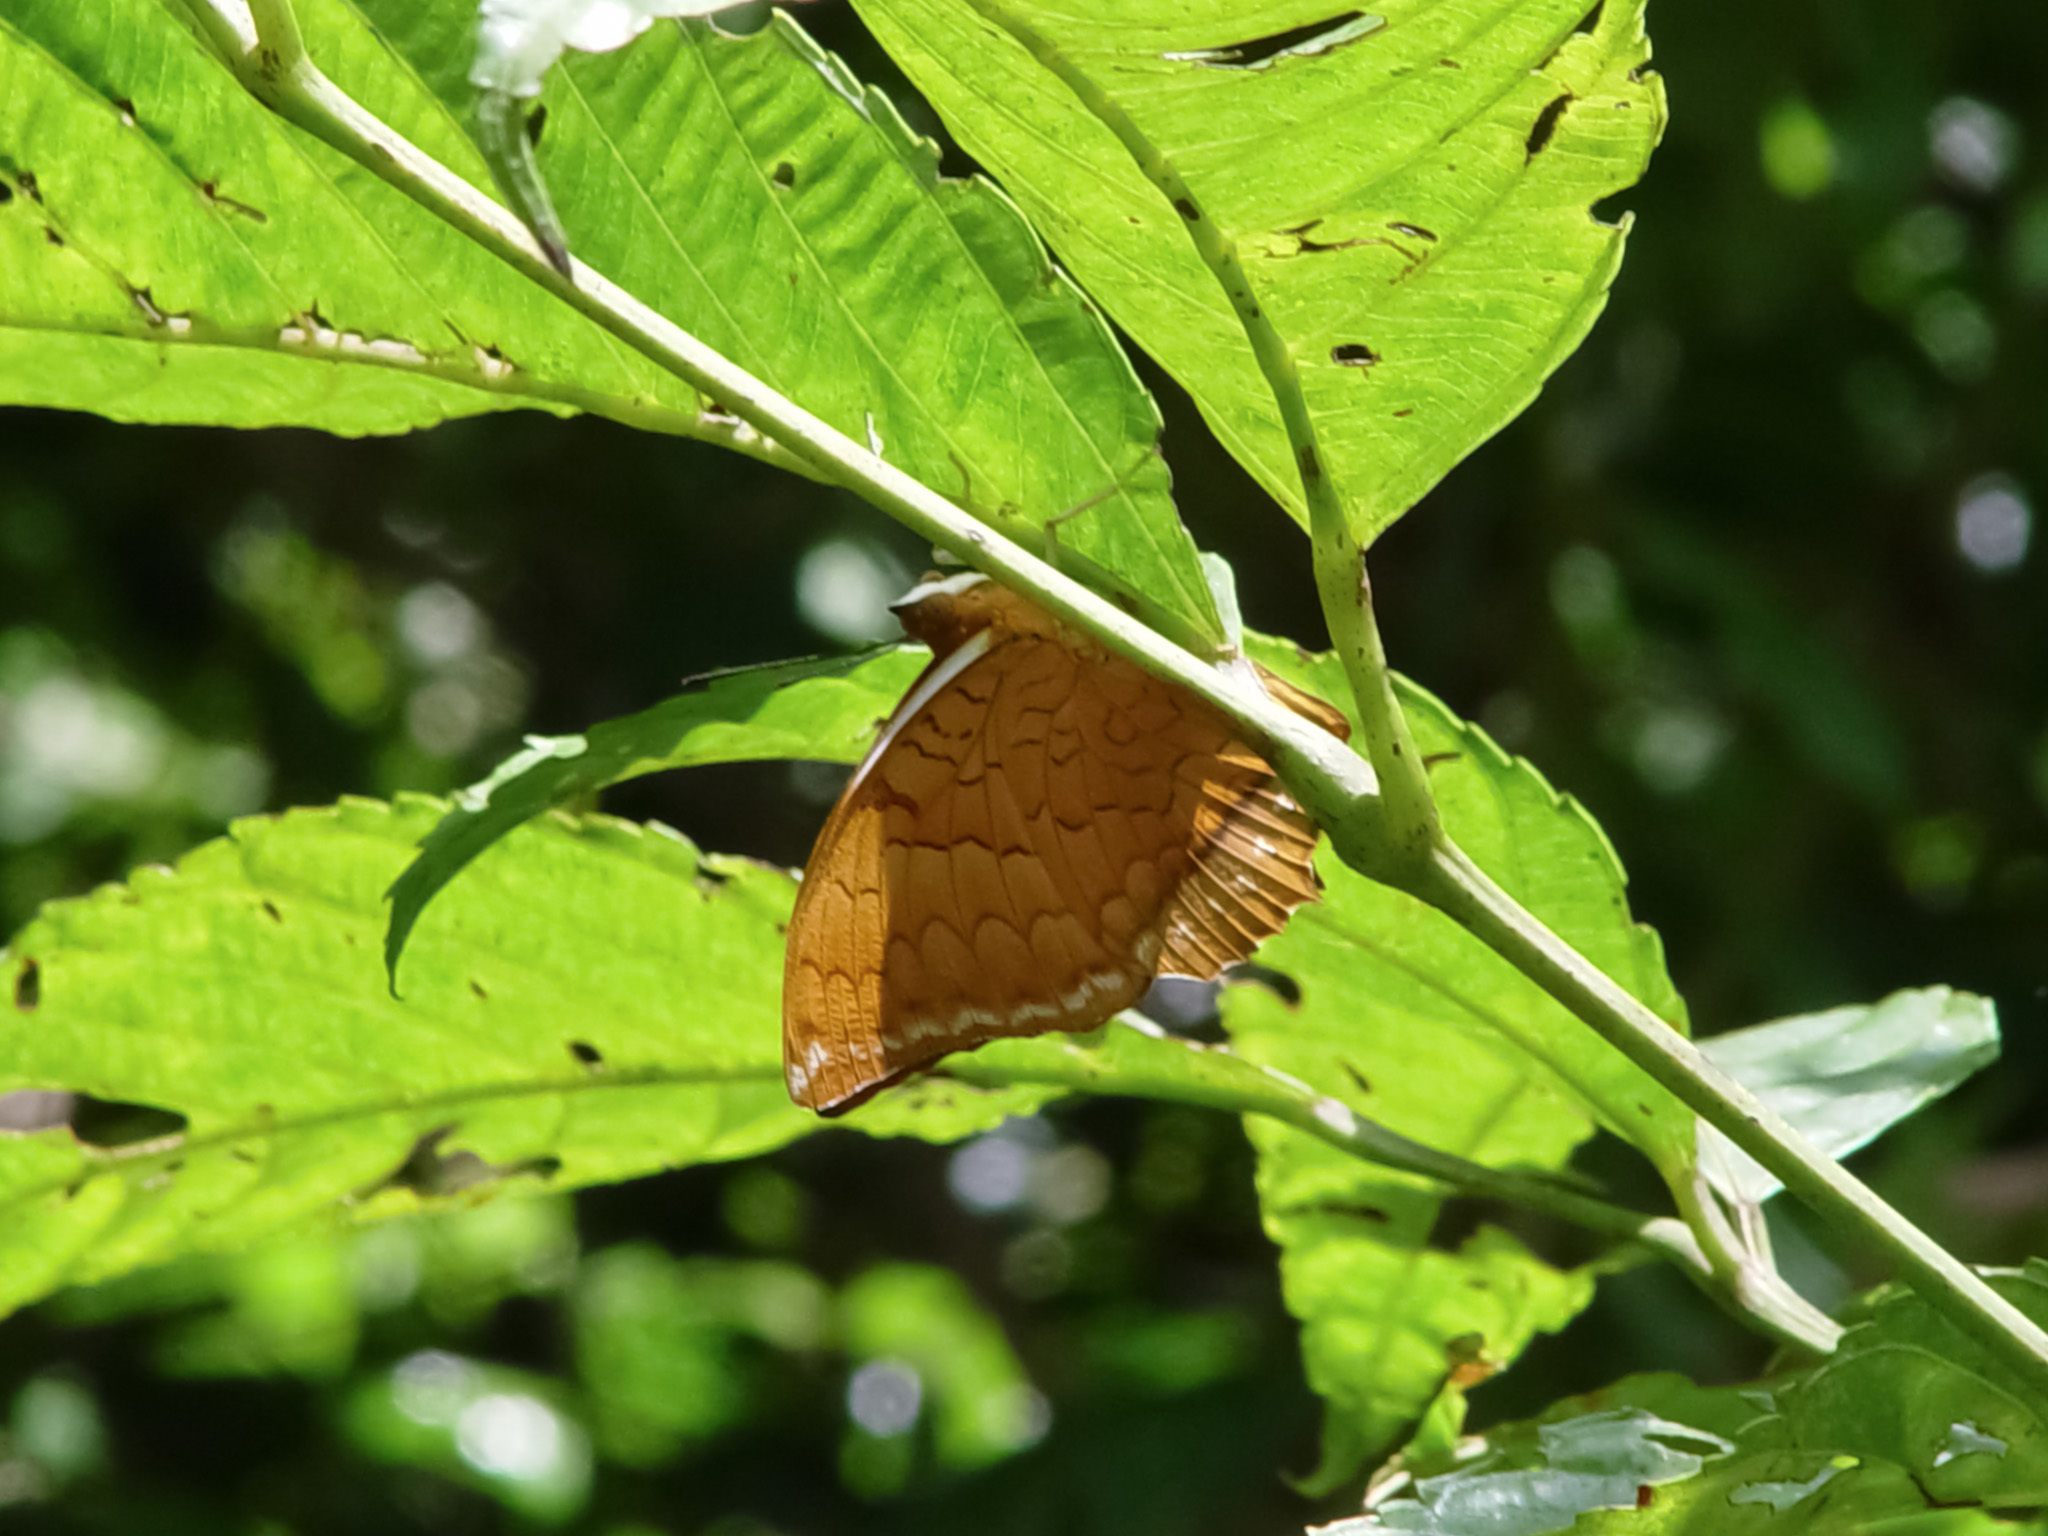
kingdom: Animalia
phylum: Arthropoda
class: Insecta
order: Lepidoptera
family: Nymphalidae
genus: Charaxes
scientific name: Charaxes distanti
